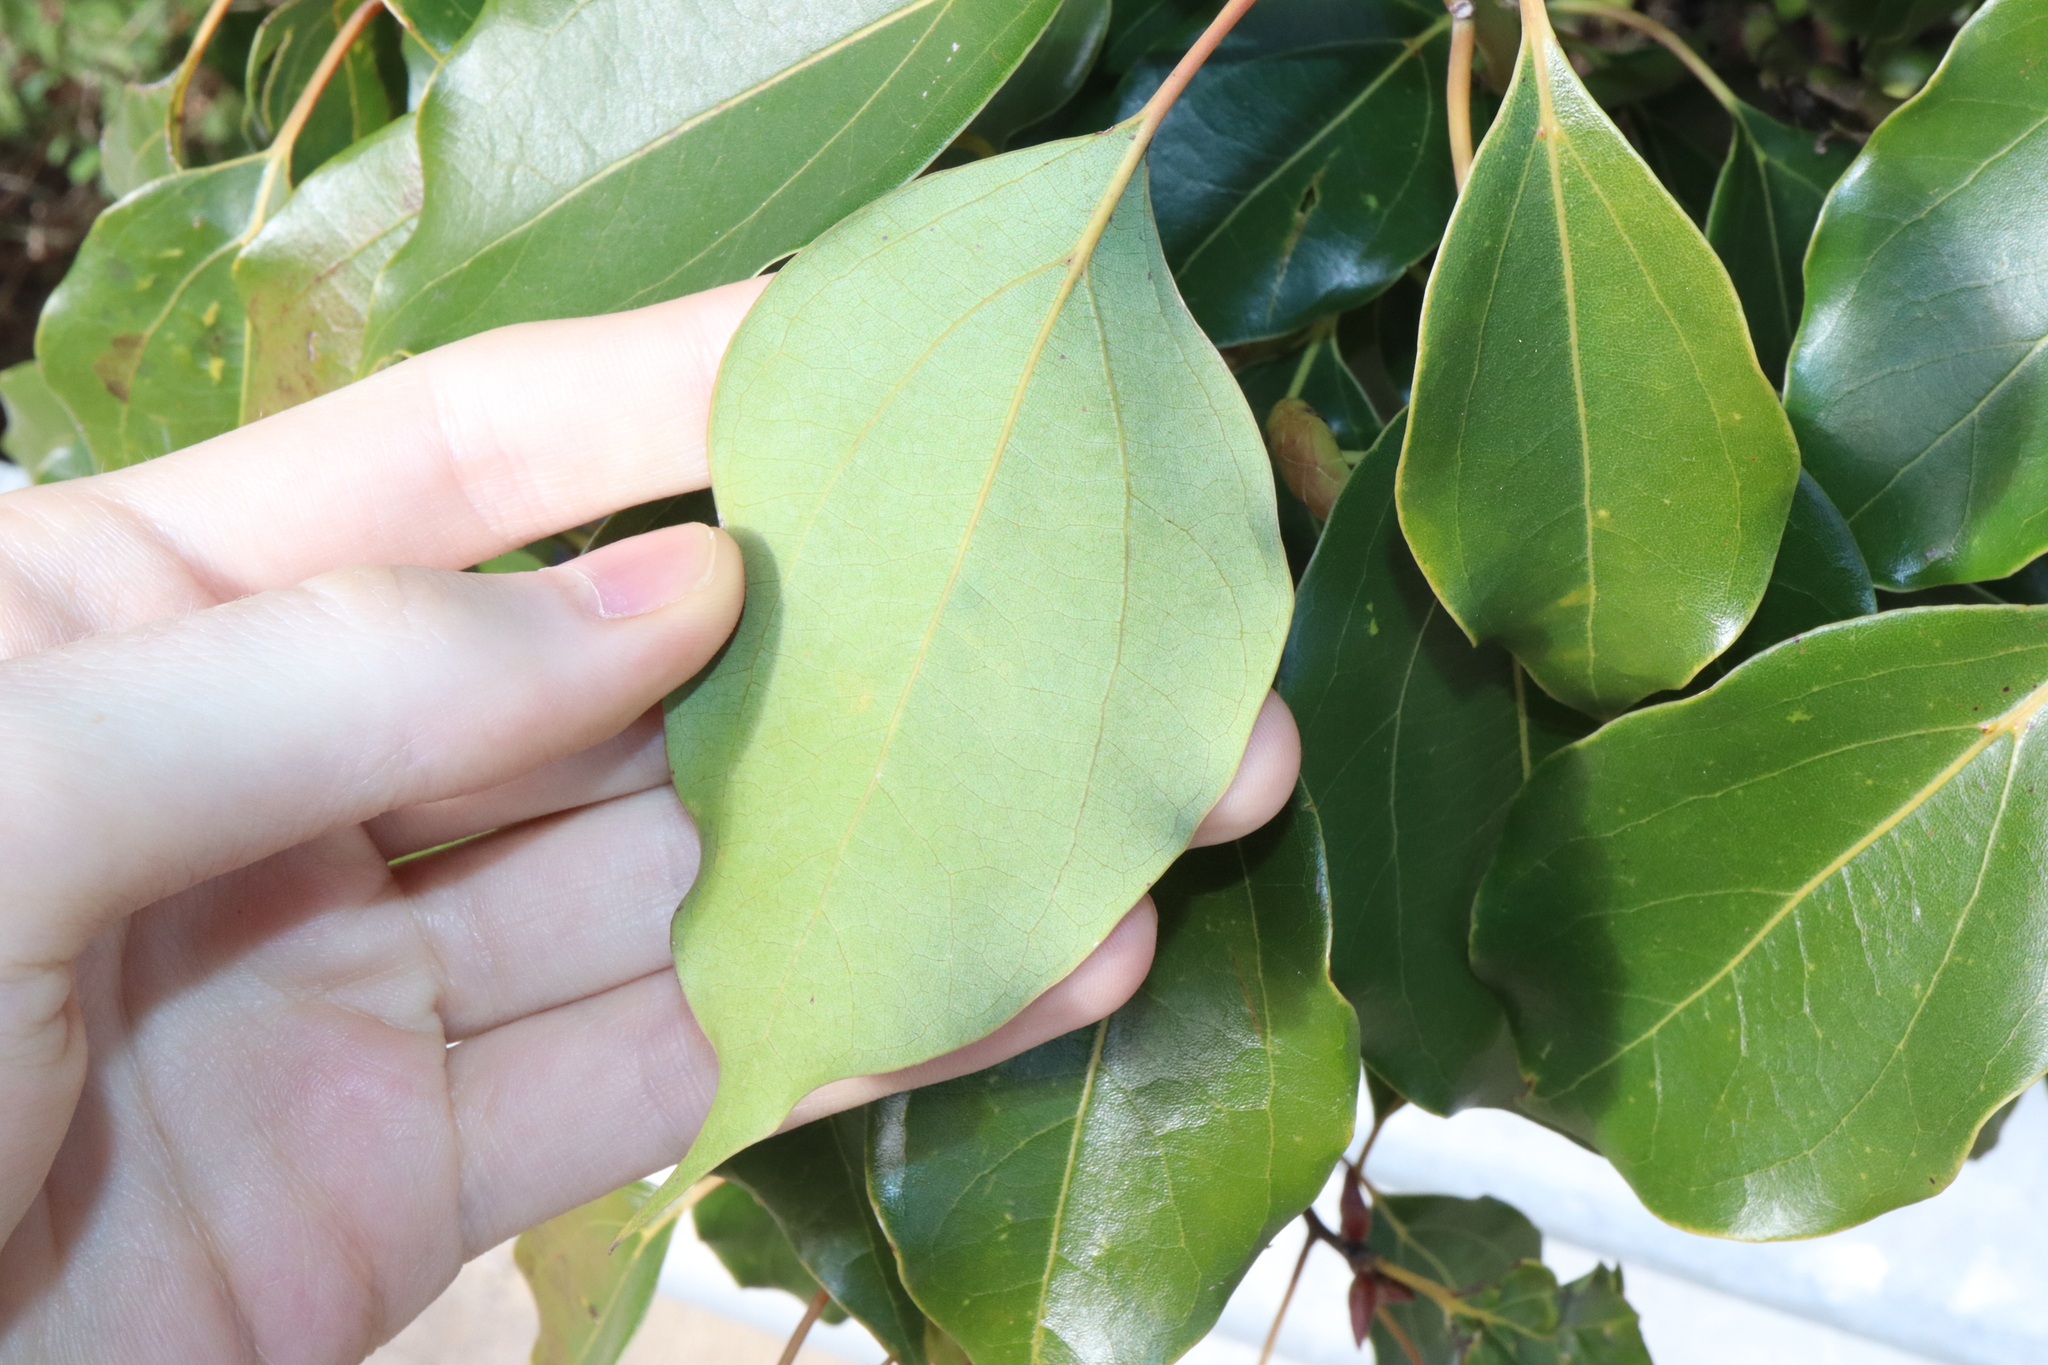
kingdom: Plantae
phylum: Tracheophyta
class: Magnoliopsida
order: Laurales
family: Lauraceae
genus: Cinnamomum
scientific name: Cinnamomum camphora
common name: Camphortree
